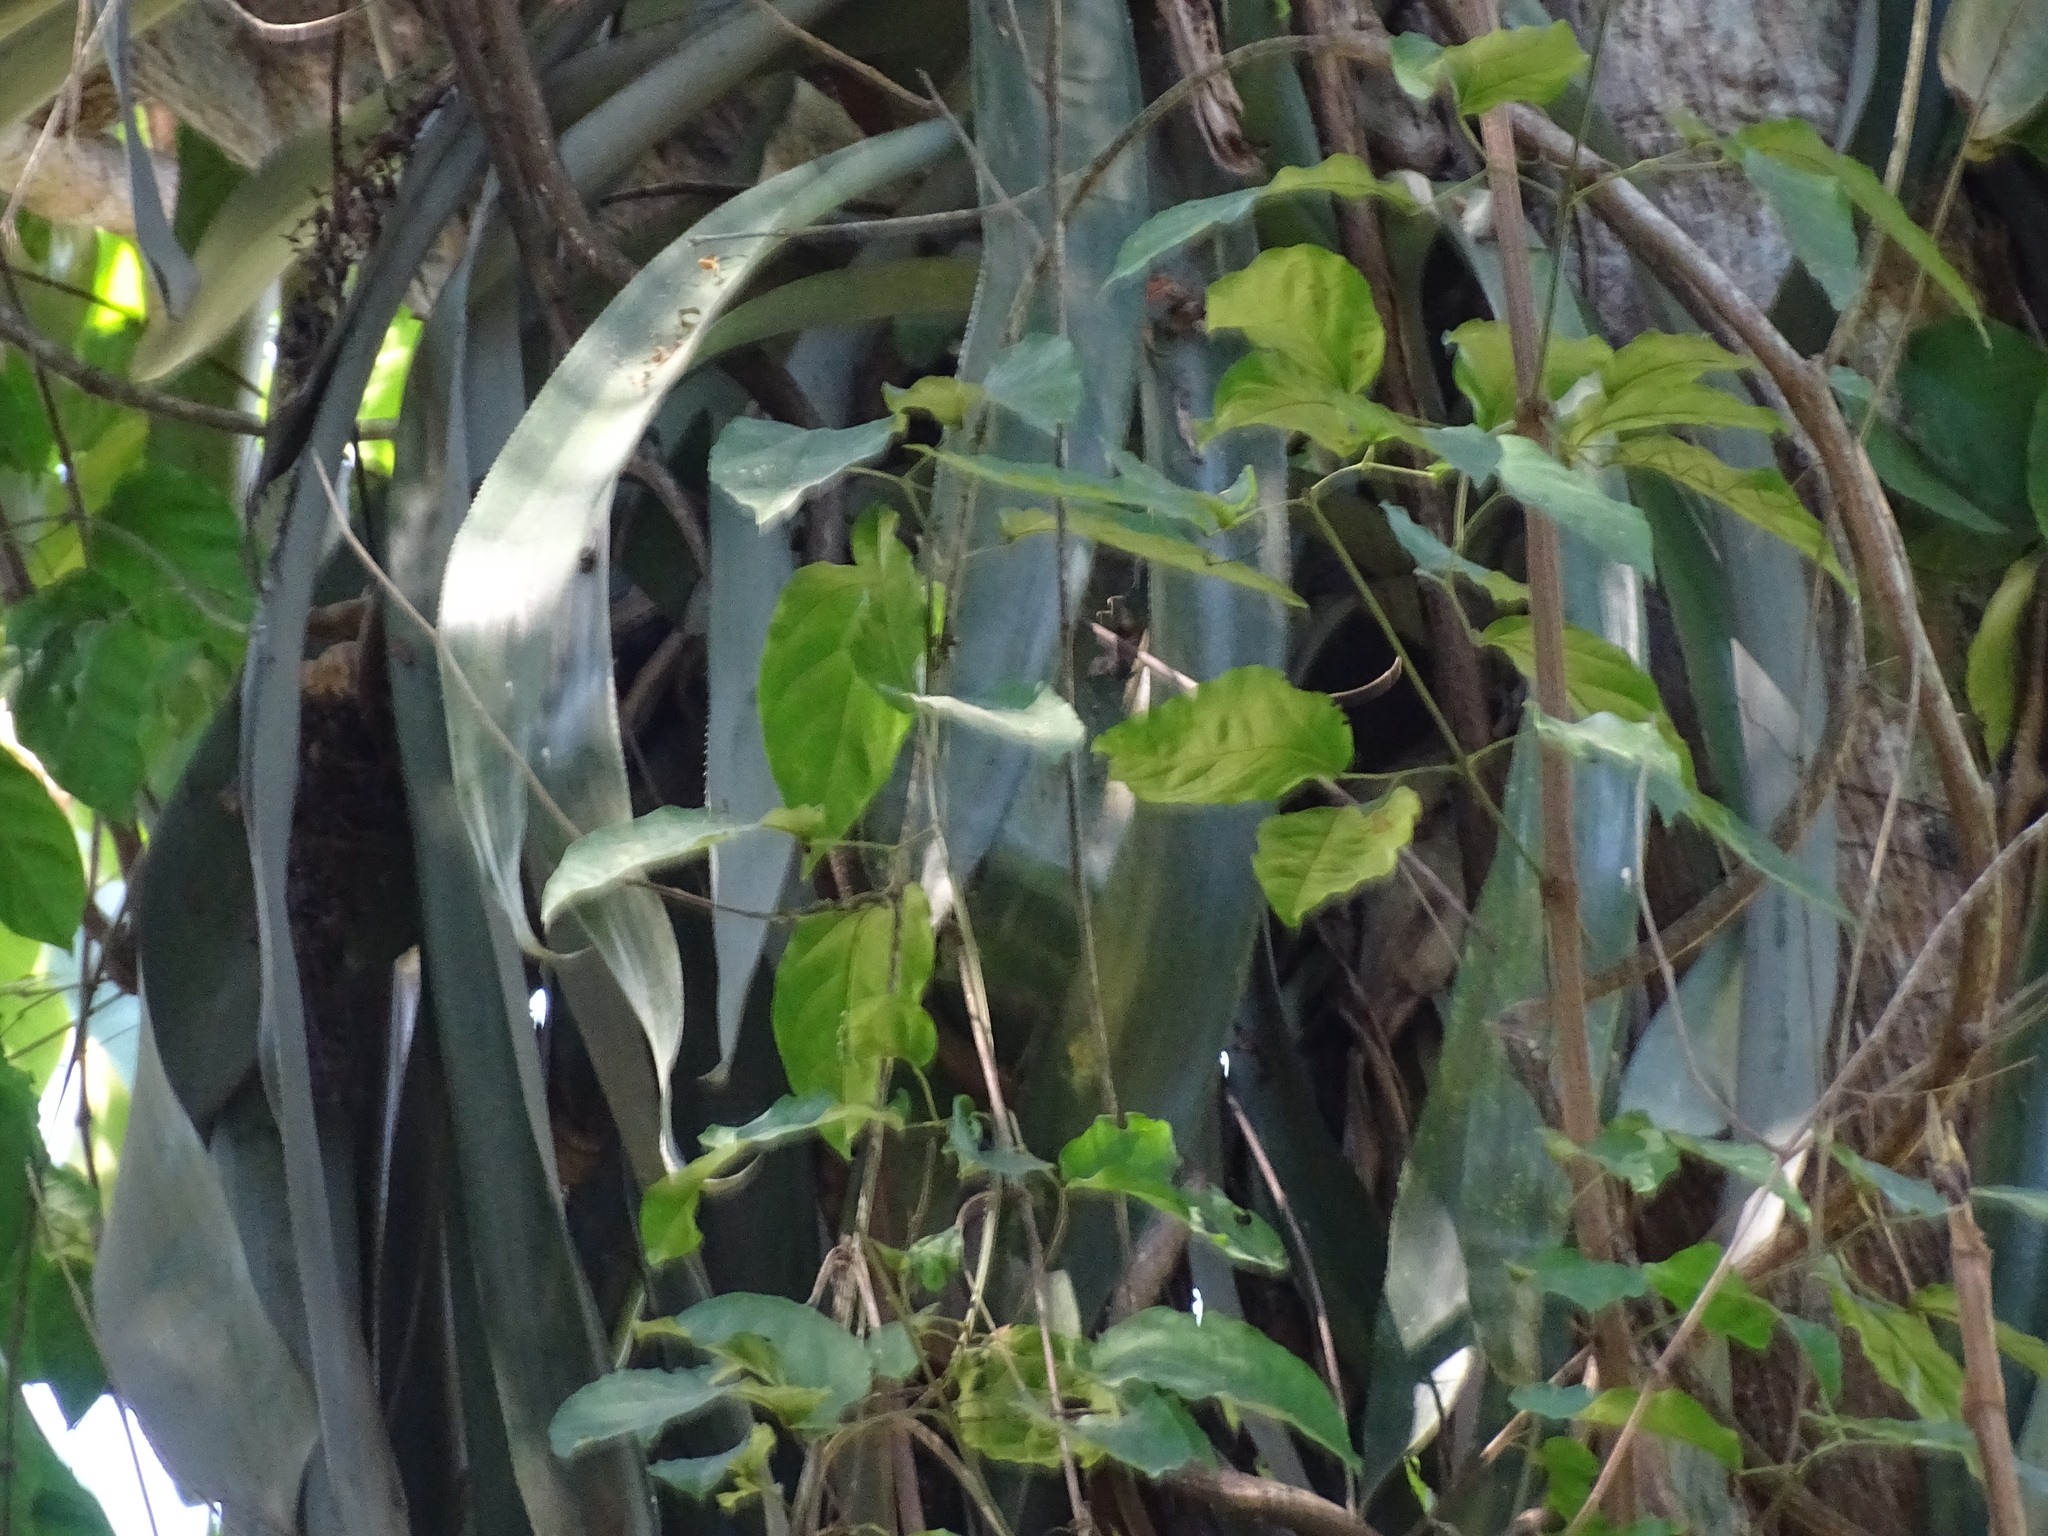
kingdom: Plantae
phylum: Tracheophyta
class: Liliopsida
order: Poales
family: Bromeliaceae
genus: Aechmea
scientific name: Aechmea matudae
